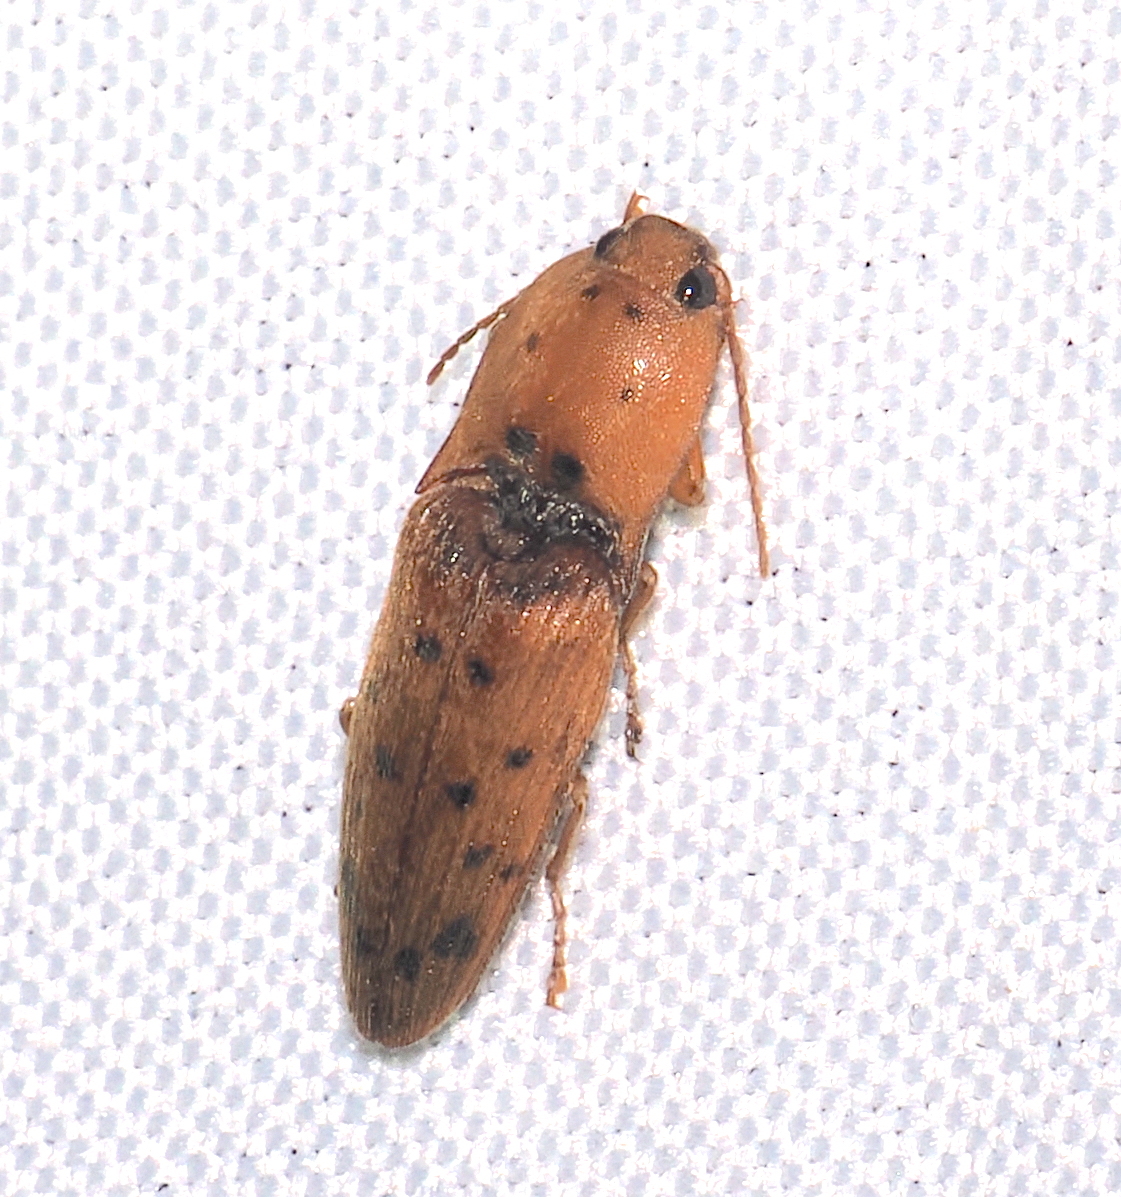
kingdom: Animalia
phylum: Arthropoda
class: Insecta
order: Coleoptera
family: Elateridae
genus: Monocrepidius
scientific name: Monocrepidius apiatus
